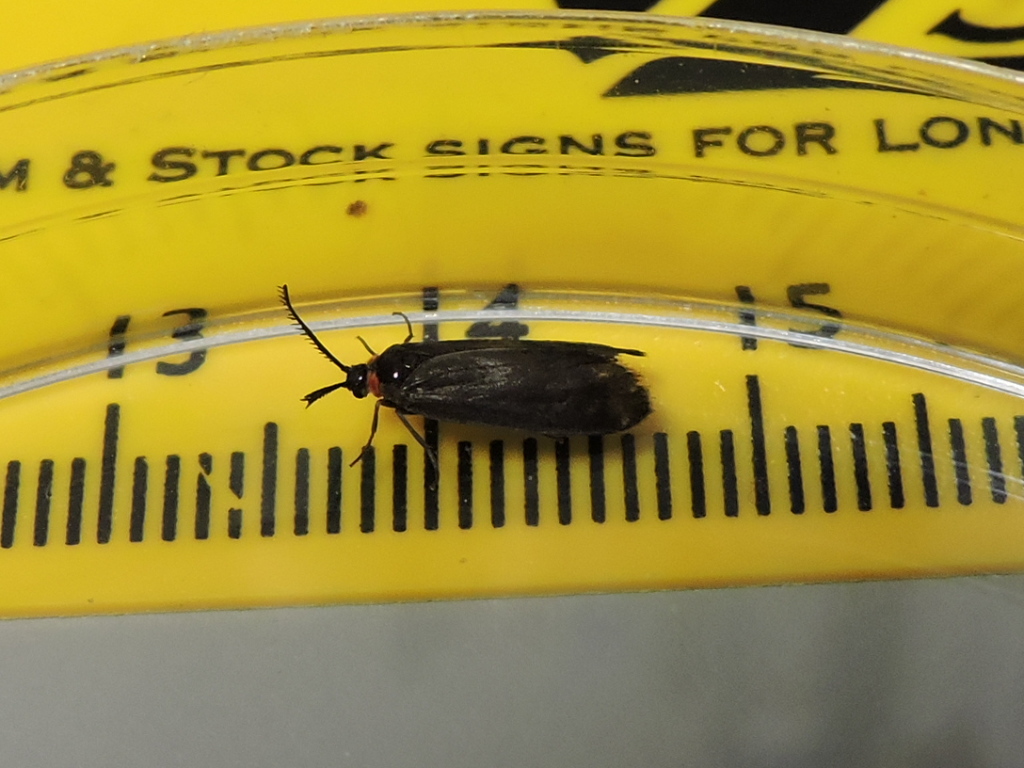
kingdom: Animalia
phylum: Arthropoda
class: Insecta
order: Lepidoptera
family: Zygaenidae
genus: Acoloithus
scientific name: Acoloithus falsarius
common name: Clemens' false skeletonizer
